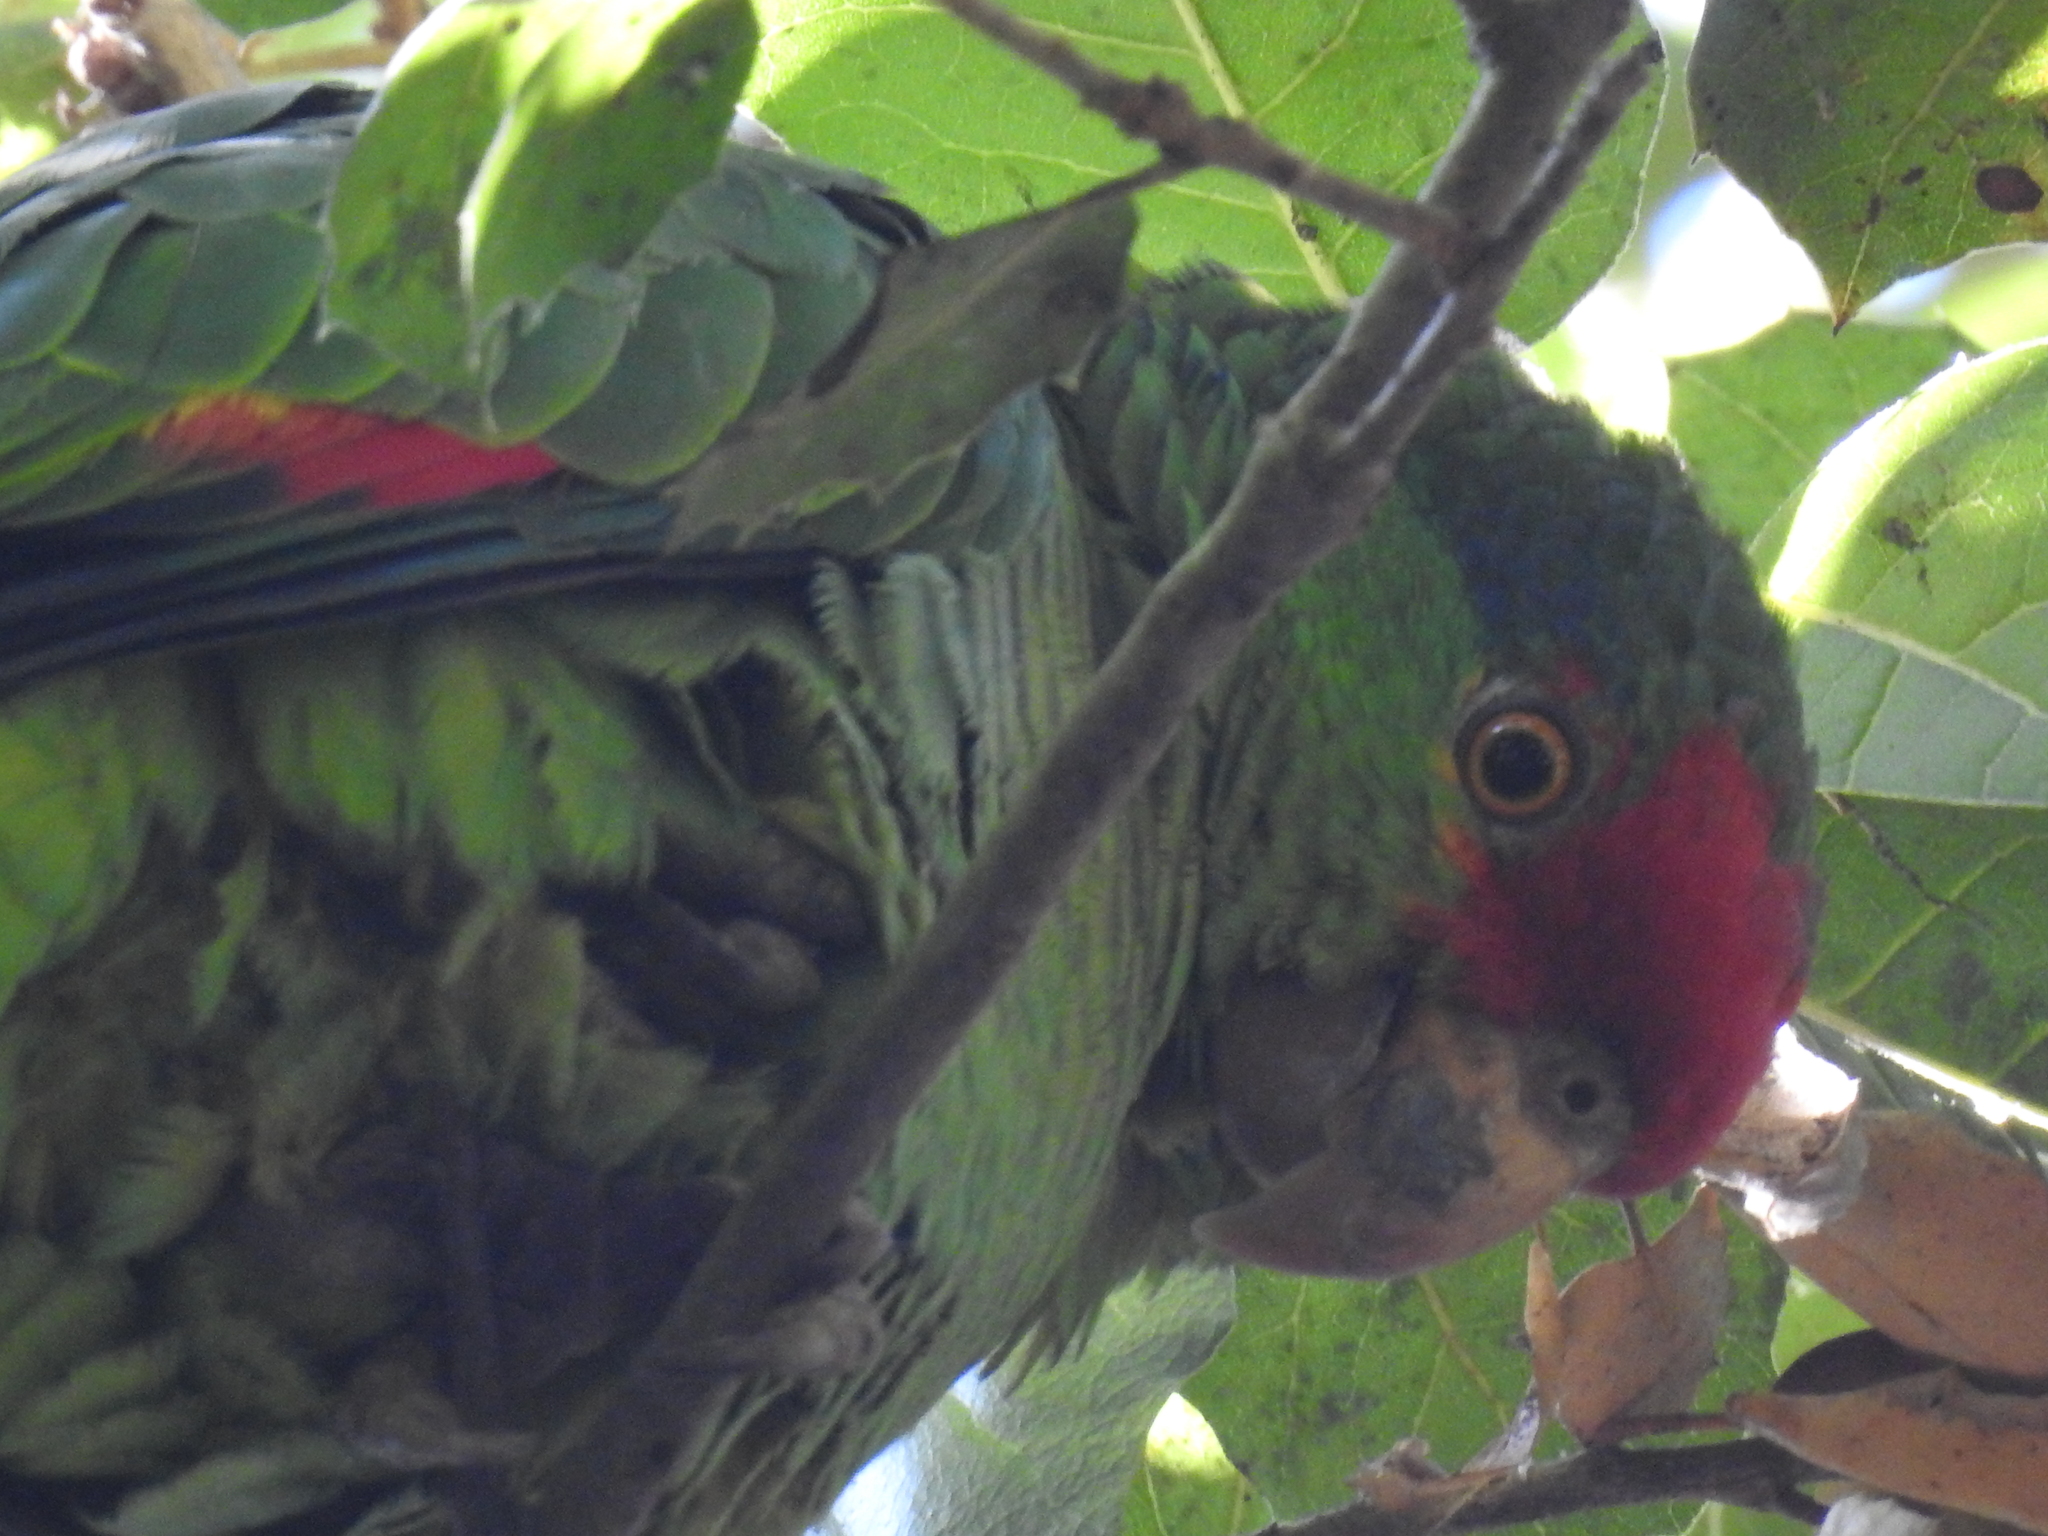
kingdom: Animalia
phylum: Chordata
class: Aves
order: Psittaciformes
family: Psittacidae
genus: Amazona
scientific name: Amazona viridigenalis
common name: Red-crowned amazon
